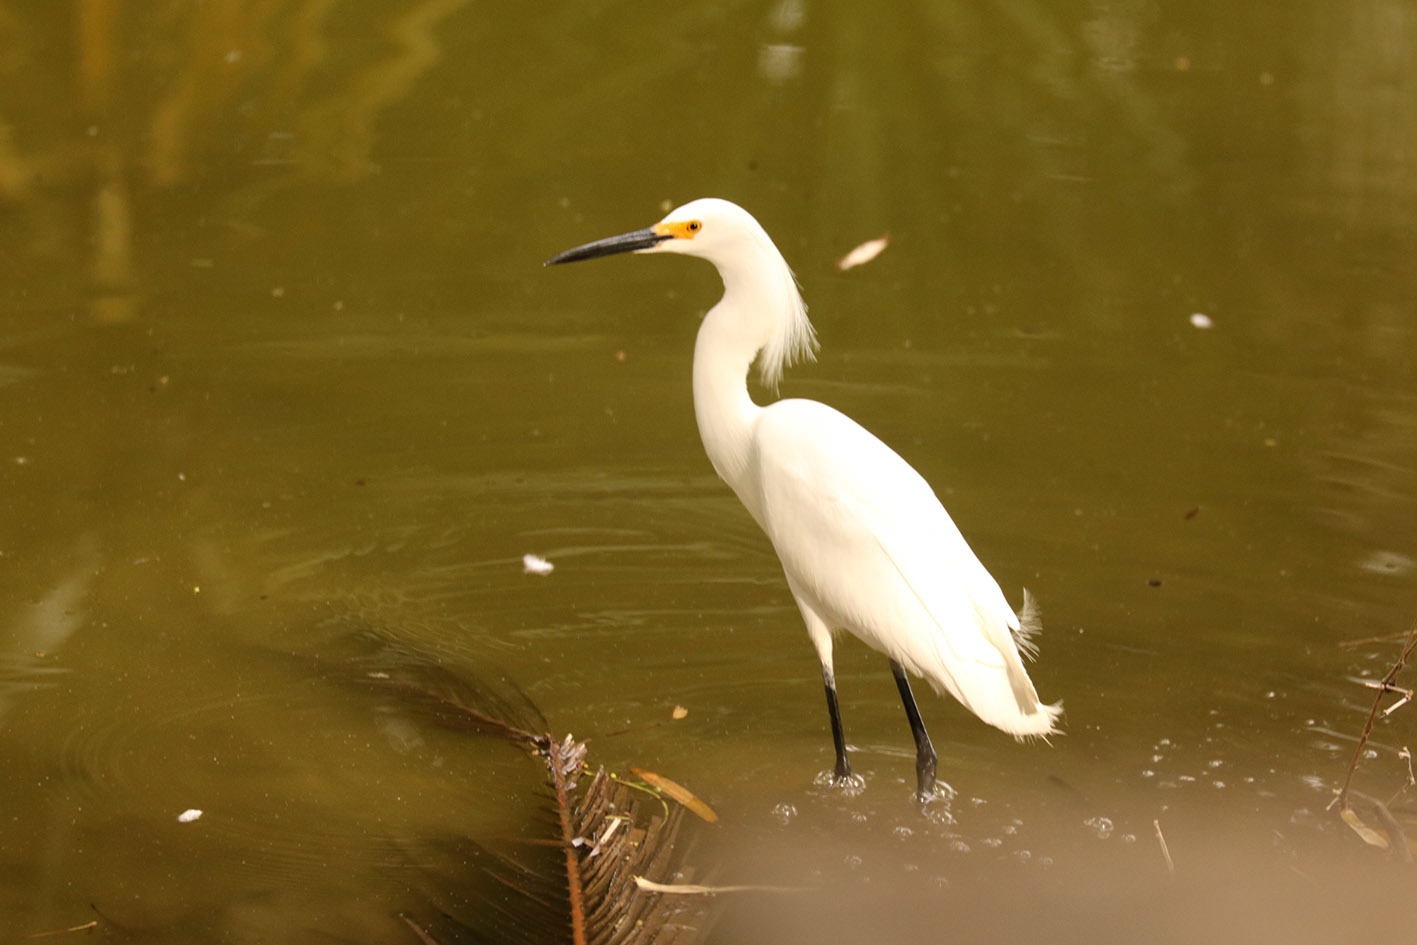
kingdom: Animalia
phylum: Chordata
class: Aves
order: Pelecaniformes
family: Ardeidae
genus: Egretta
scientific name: Egretta thula
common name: Snowy egret
